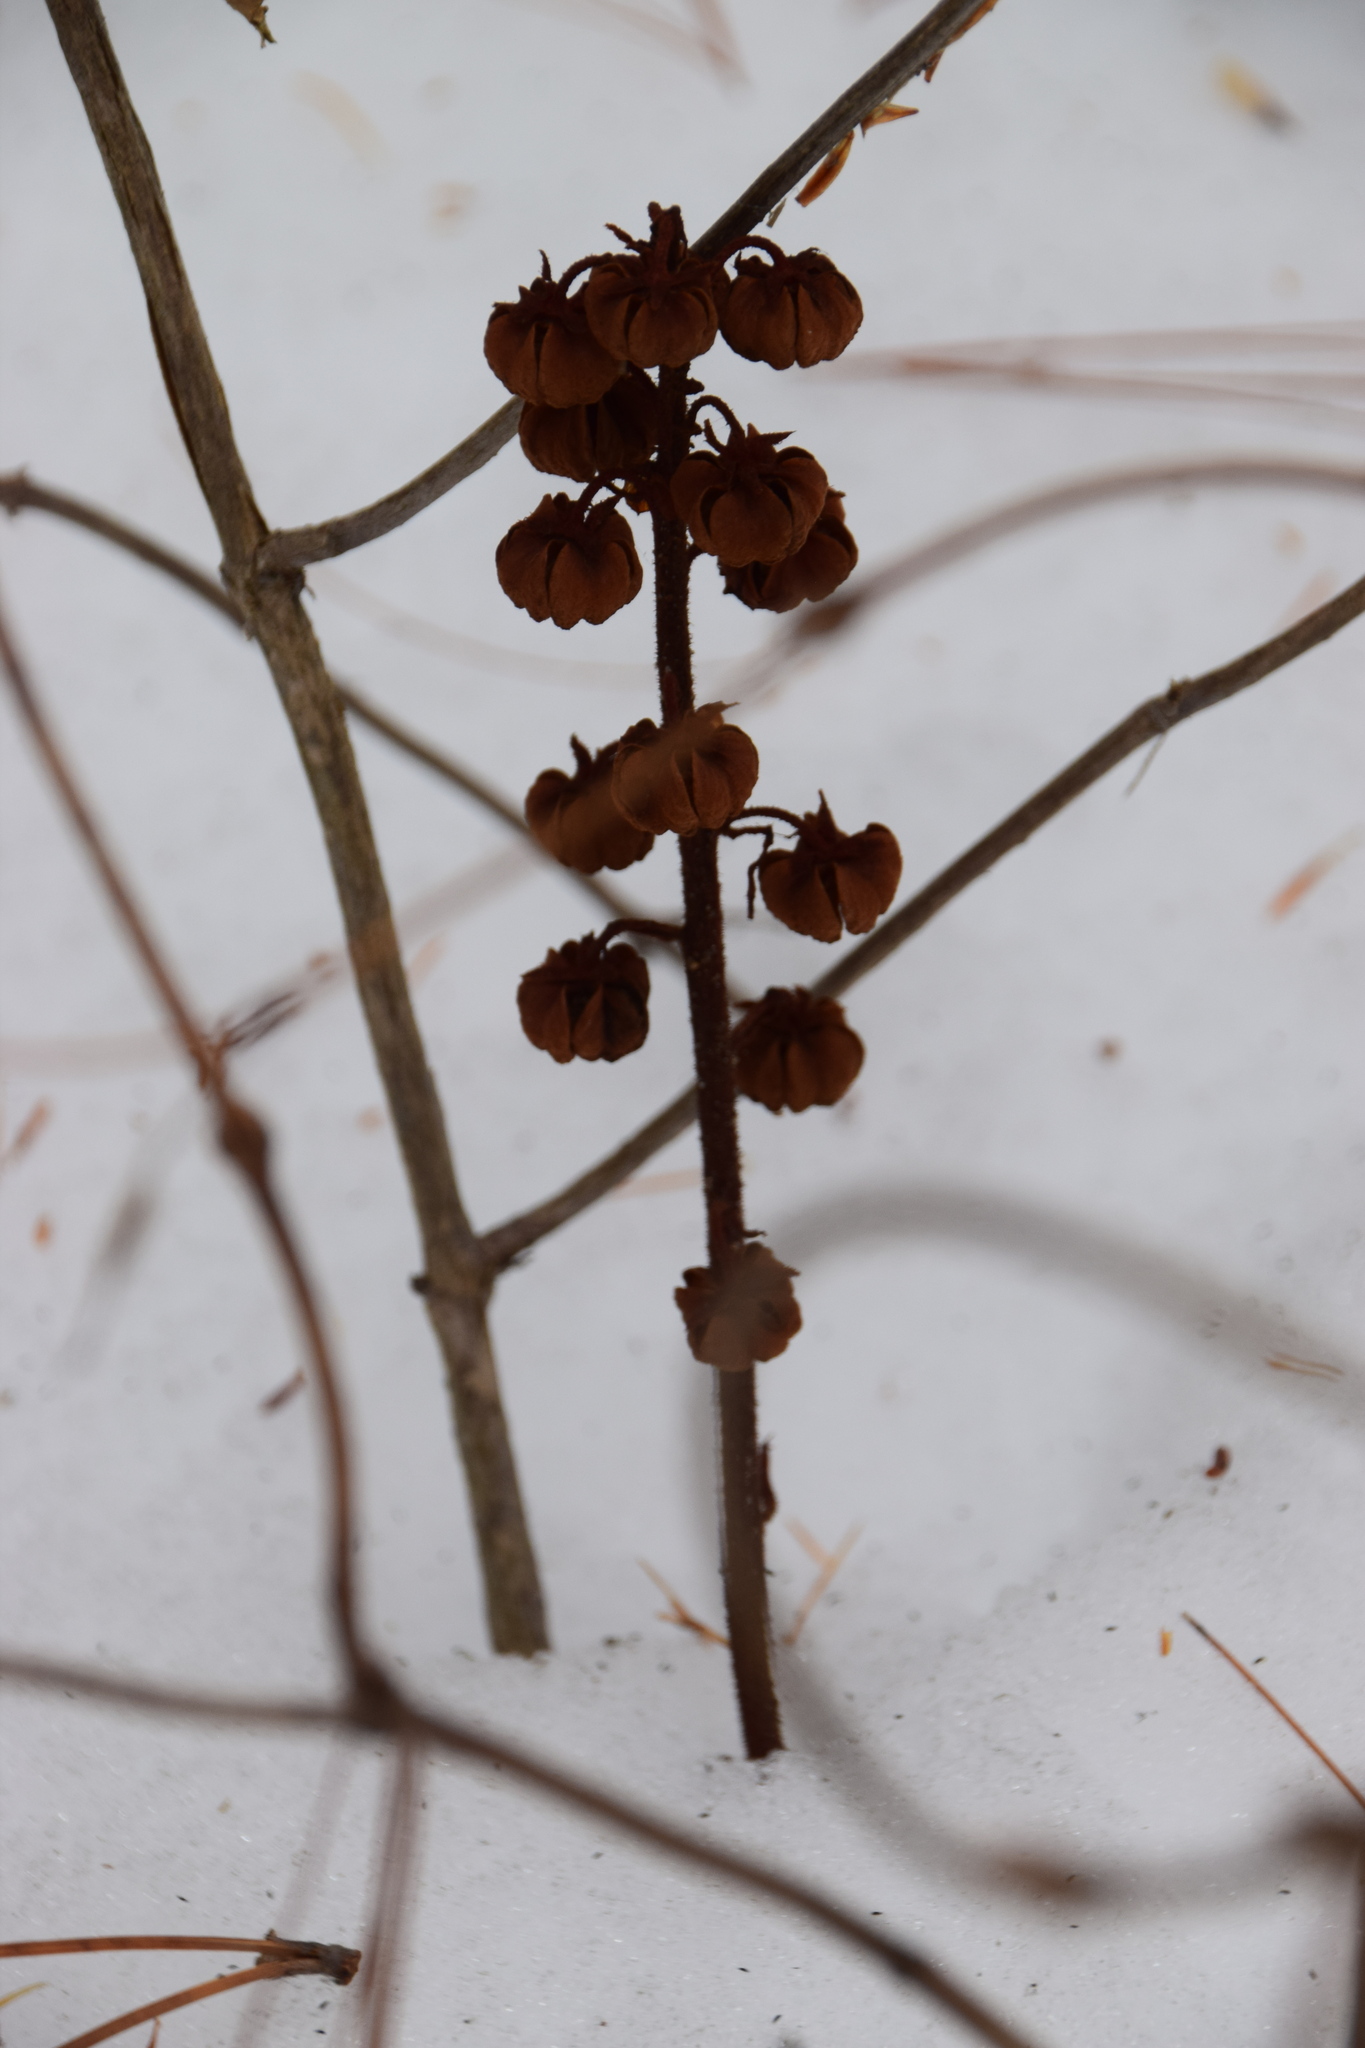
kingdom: Plantae
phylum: Tracheophyta
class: Magnoliopsida
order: Ericales
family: Ericaceae
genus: Pterospora
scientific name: Pterospora andromedea
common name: Giant bird's-nest
